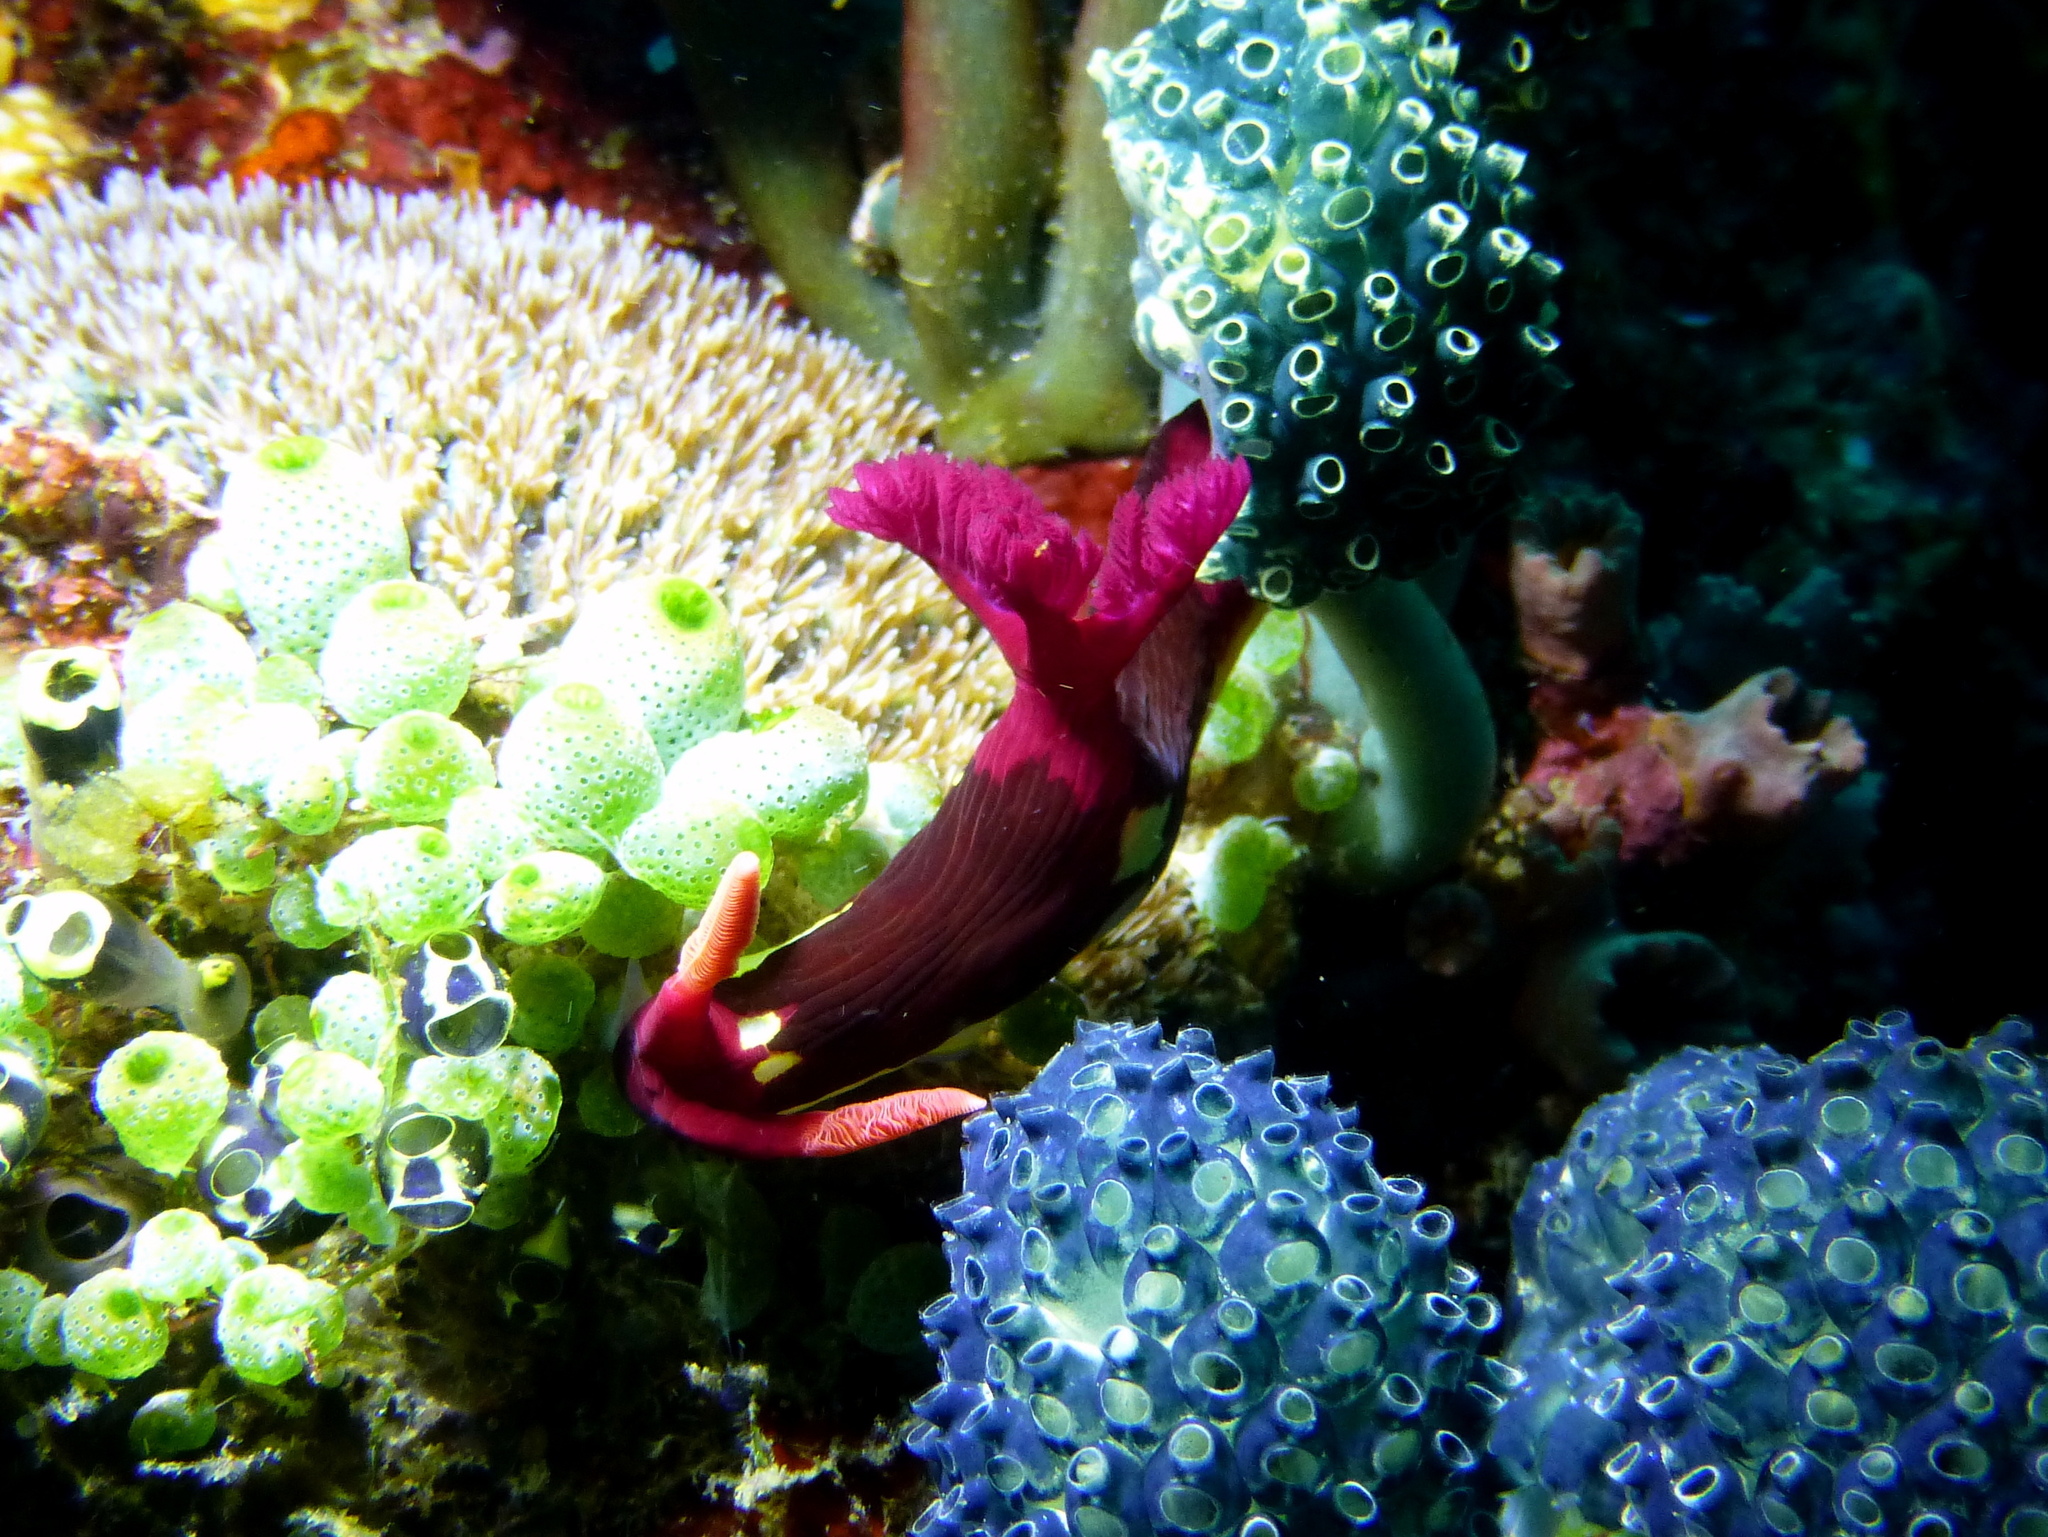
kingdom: Animalia
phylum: Mollusca
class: Gastropoda
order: Nudibranchia
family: Polyceridae
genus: Nembrotha
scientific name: Nembrotha chamberlaini
